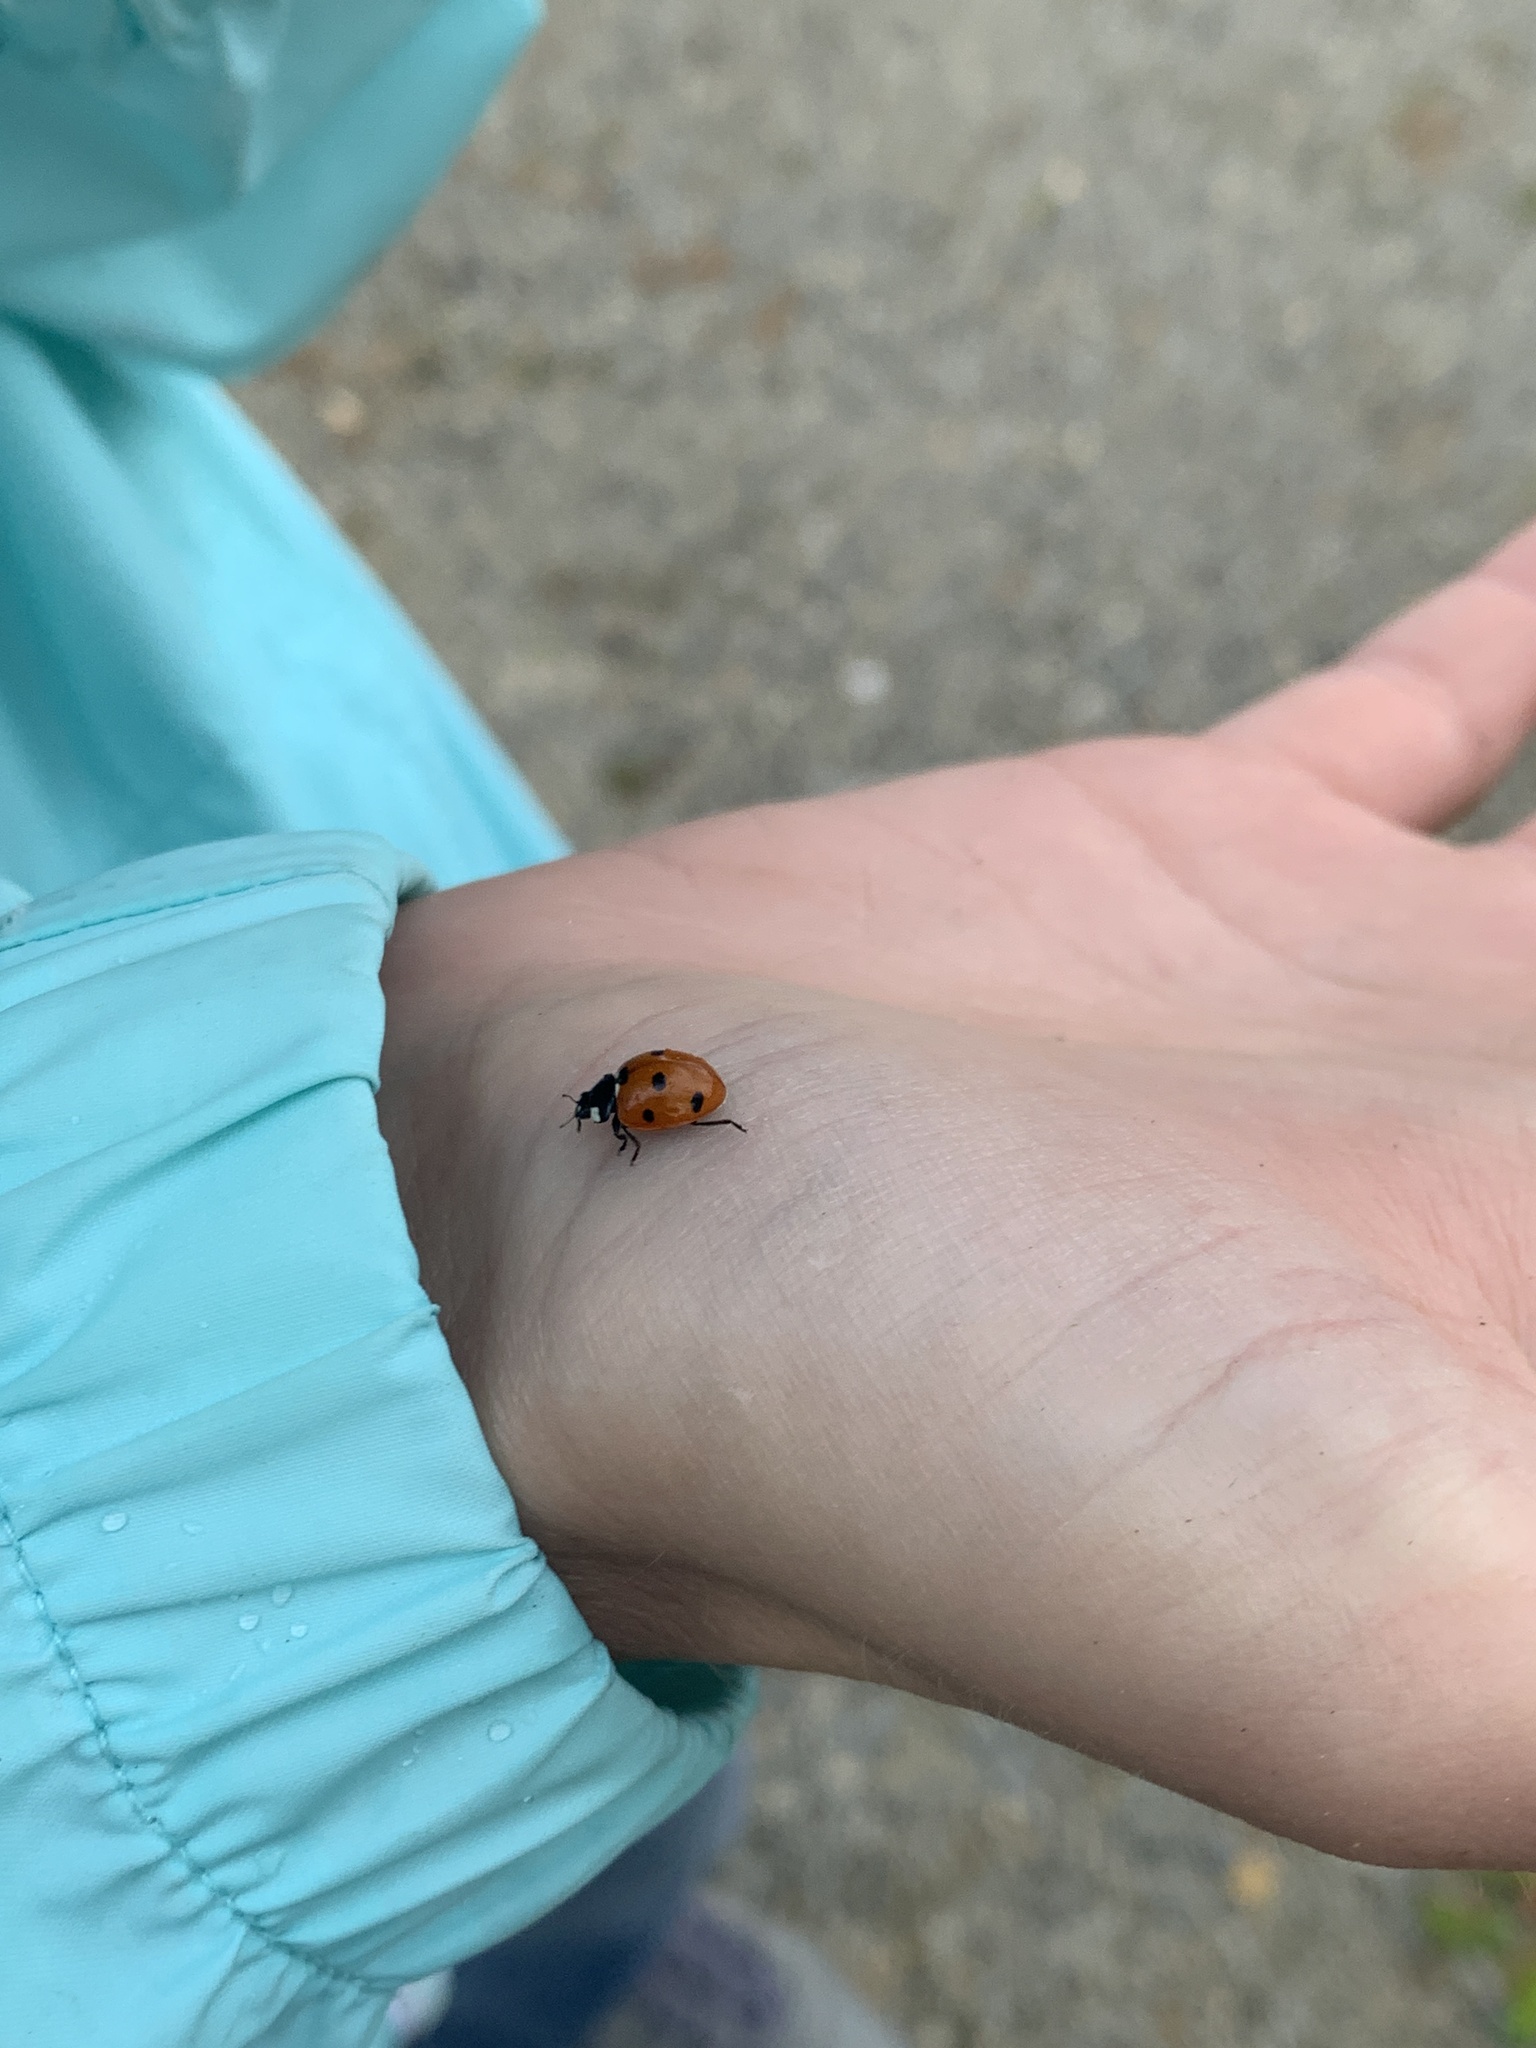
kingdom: Animalia
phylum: Arthropoda
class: Insecta
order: Coleoptera
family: Coccinellidae
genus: Coccinella
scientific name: Coccinella septempunctata
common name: Sevenspotted lady beetle
